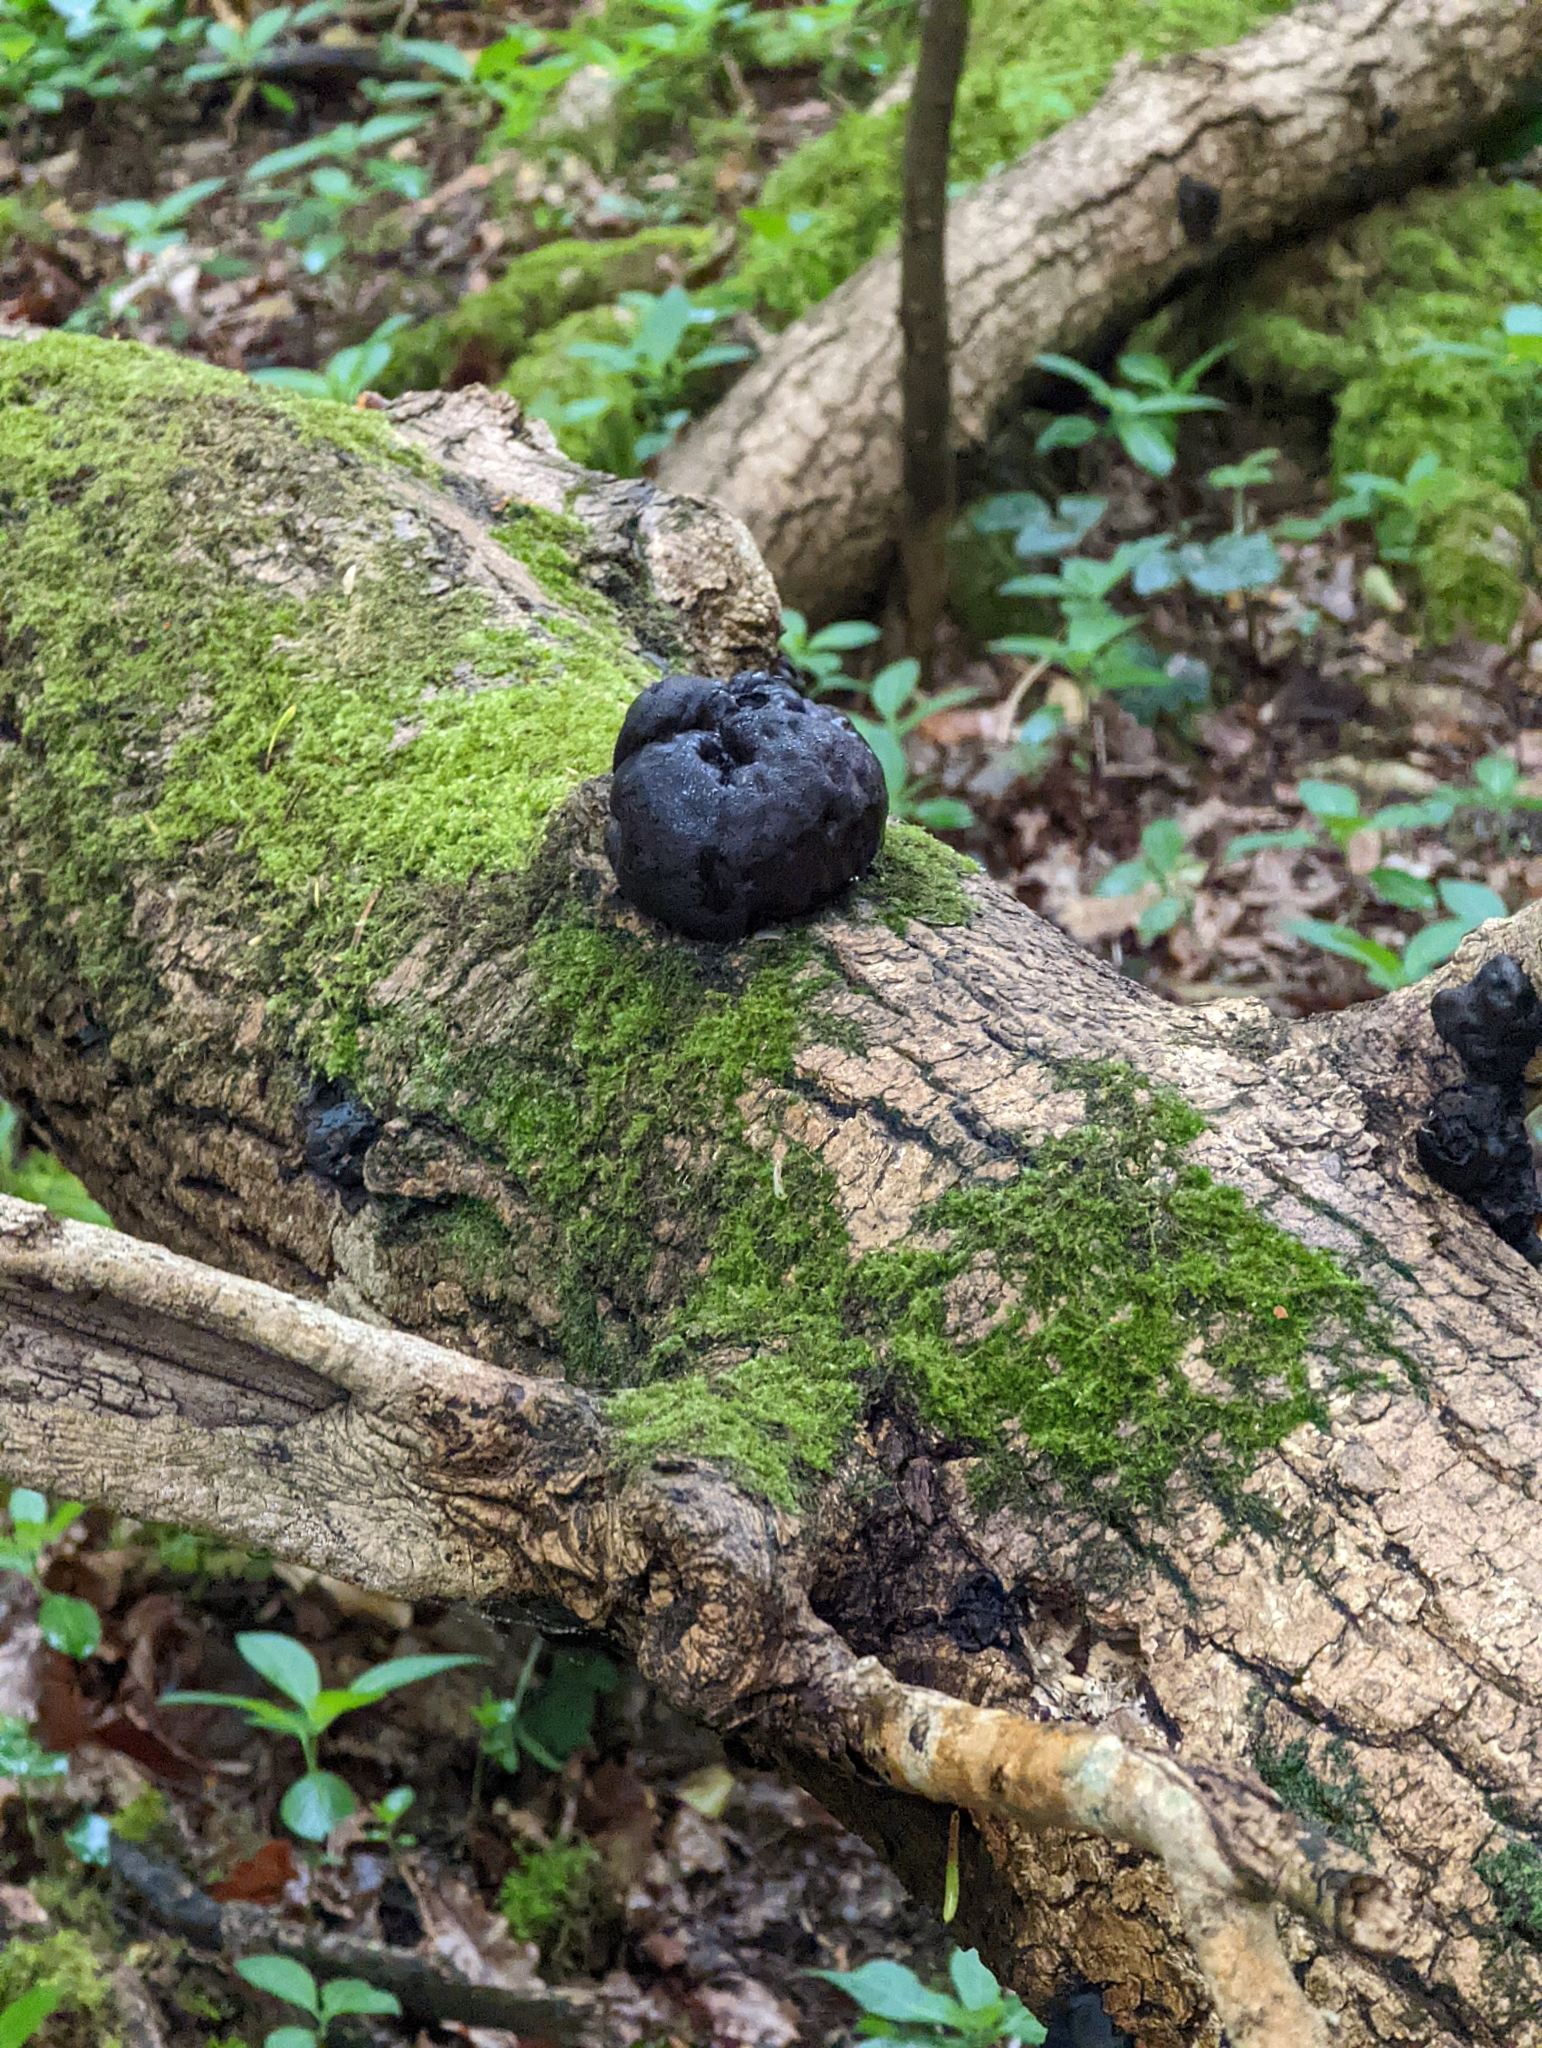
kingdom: Fungi
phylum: Ascomycota
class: Sordariomycetes
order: Xylariales
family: Hypoxylaceae
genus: Daldinia
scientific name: Daldinia concentrica
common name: Cramp balls
